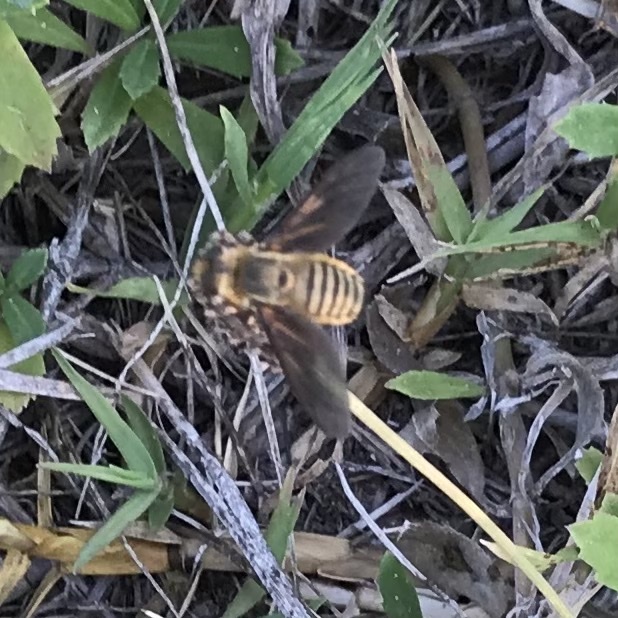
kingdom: Animalia
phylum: Arthropoda
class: Insecta
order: Diptera
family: Bombyliidae
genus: Poecilanthrax
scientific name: Poecilanthrax lucifer
